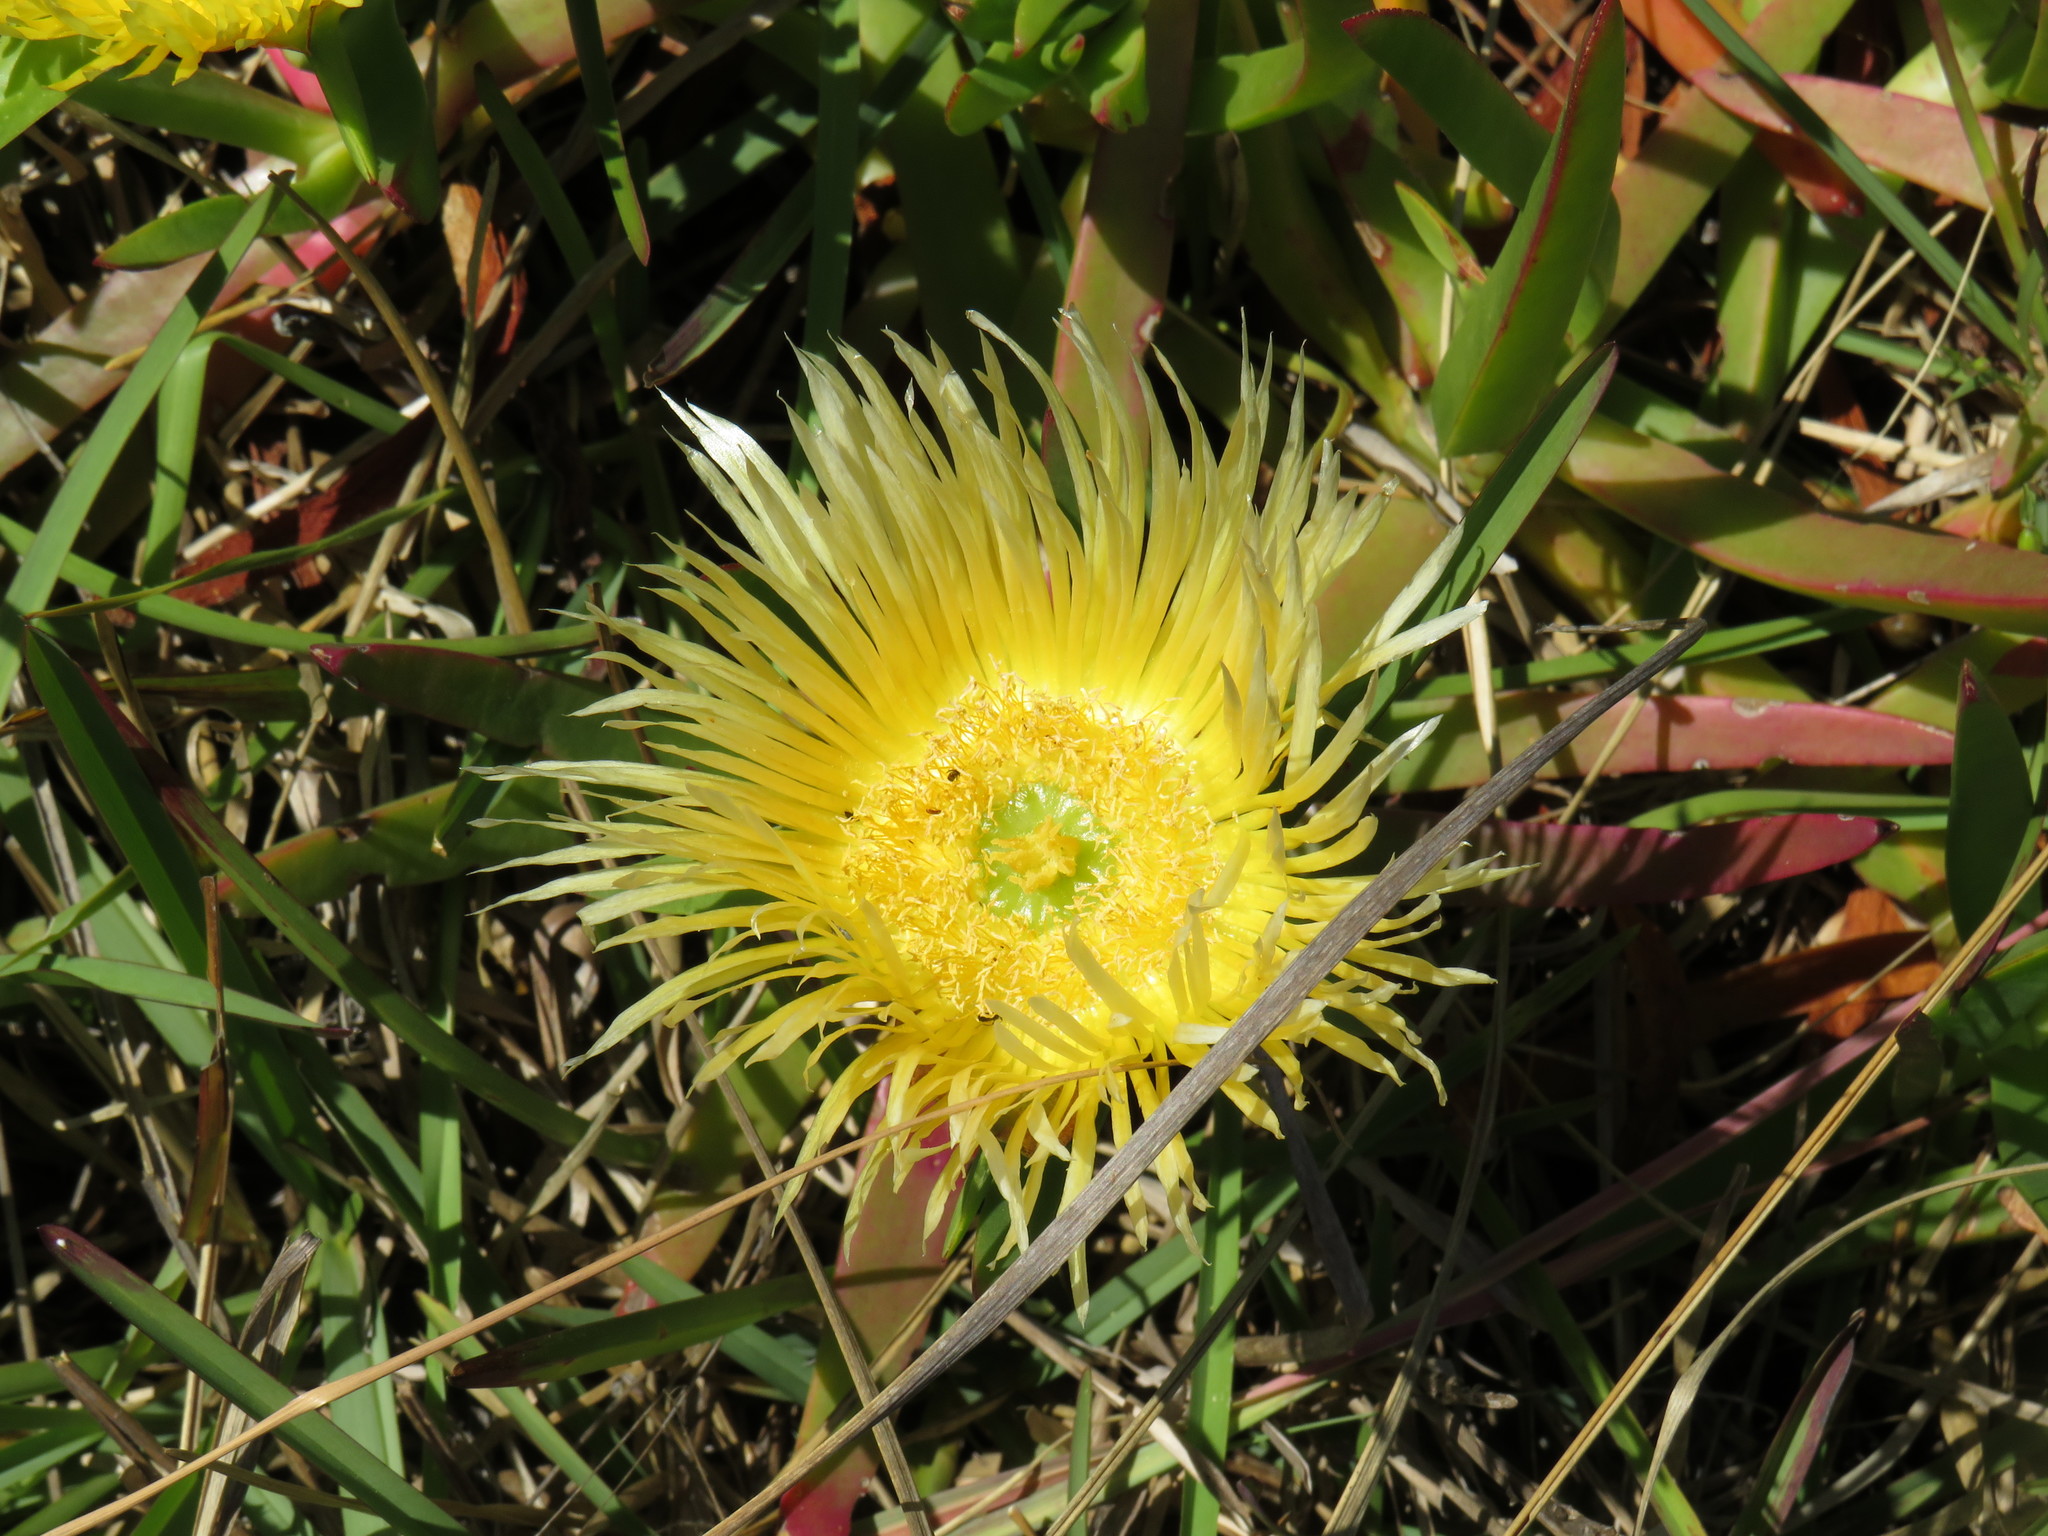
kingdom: Plantae
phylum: Tracheophyta
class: Magnoliopsida
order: Caryophyllales
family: Aizoaceae
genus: Carpobrotus
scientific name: Carpobrotus edulis
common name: Hottentot-fig
